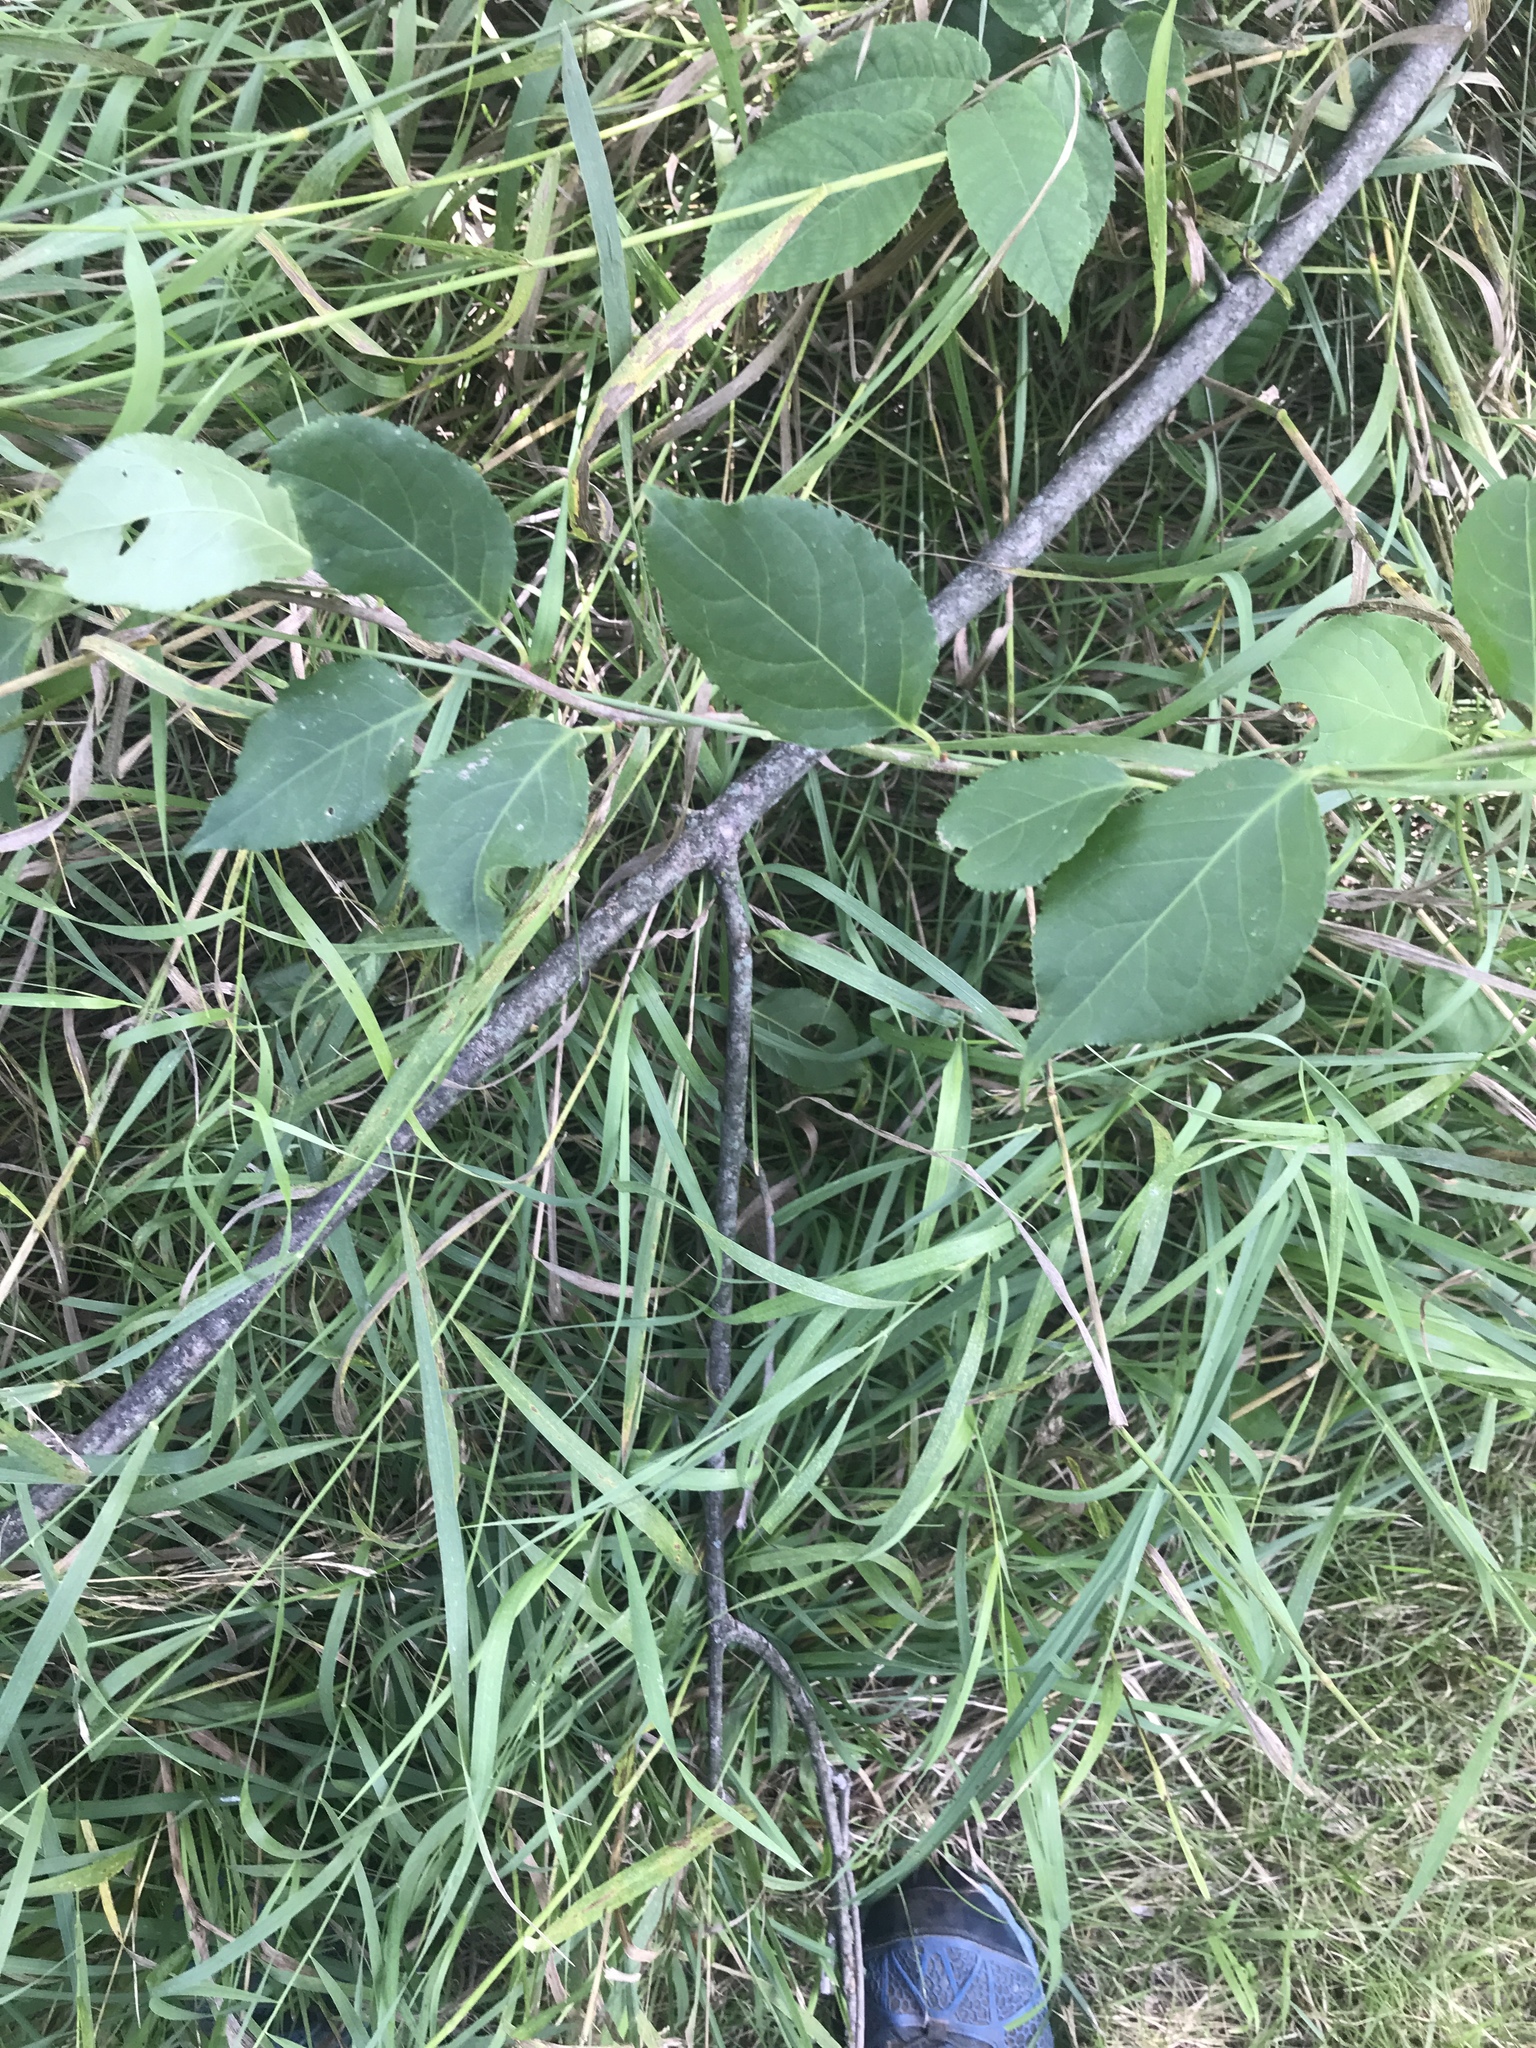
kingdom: Plantae
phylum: Tracheophyta
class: Magnoliopsida
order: Celastrales
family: Celastraceae
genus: Celastrus
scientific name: Celastrus orbiculatus
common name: Oriental bittersweet
